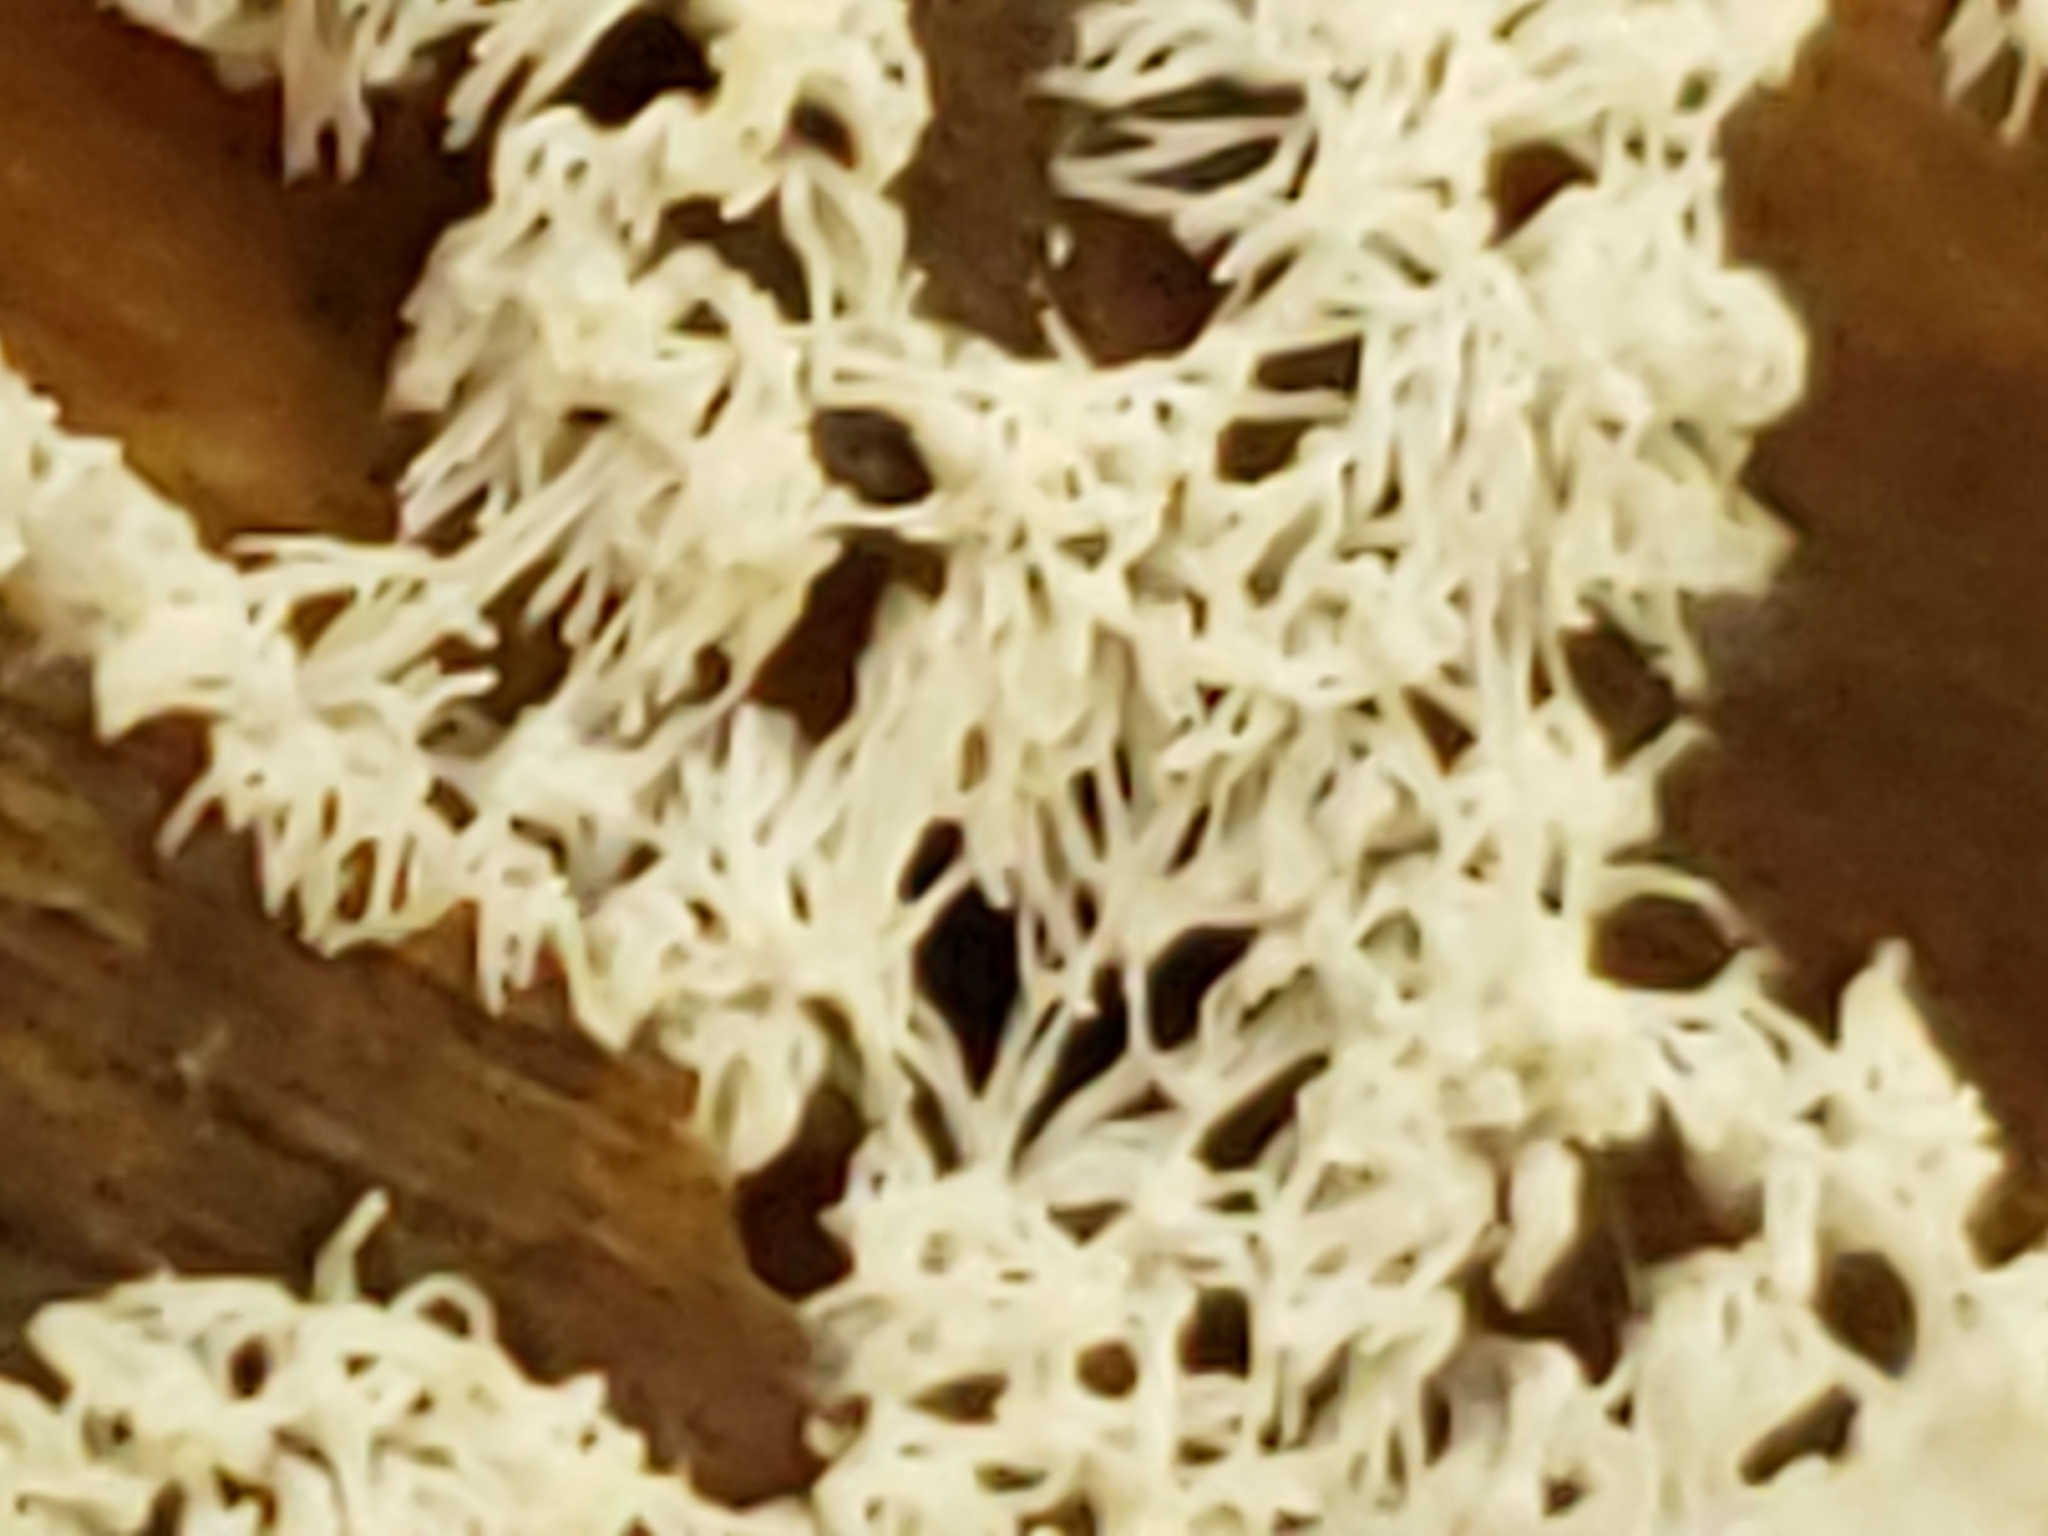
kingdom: Protozoa
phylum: Mycetozoa
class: Protosteliomycetes
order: Ceratiomyxales
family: Ceratiomyxaceae
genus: Ceratiomyxa
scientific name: Ceratiomyxa fruticulosa
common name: Honeycomb coral slime mold
